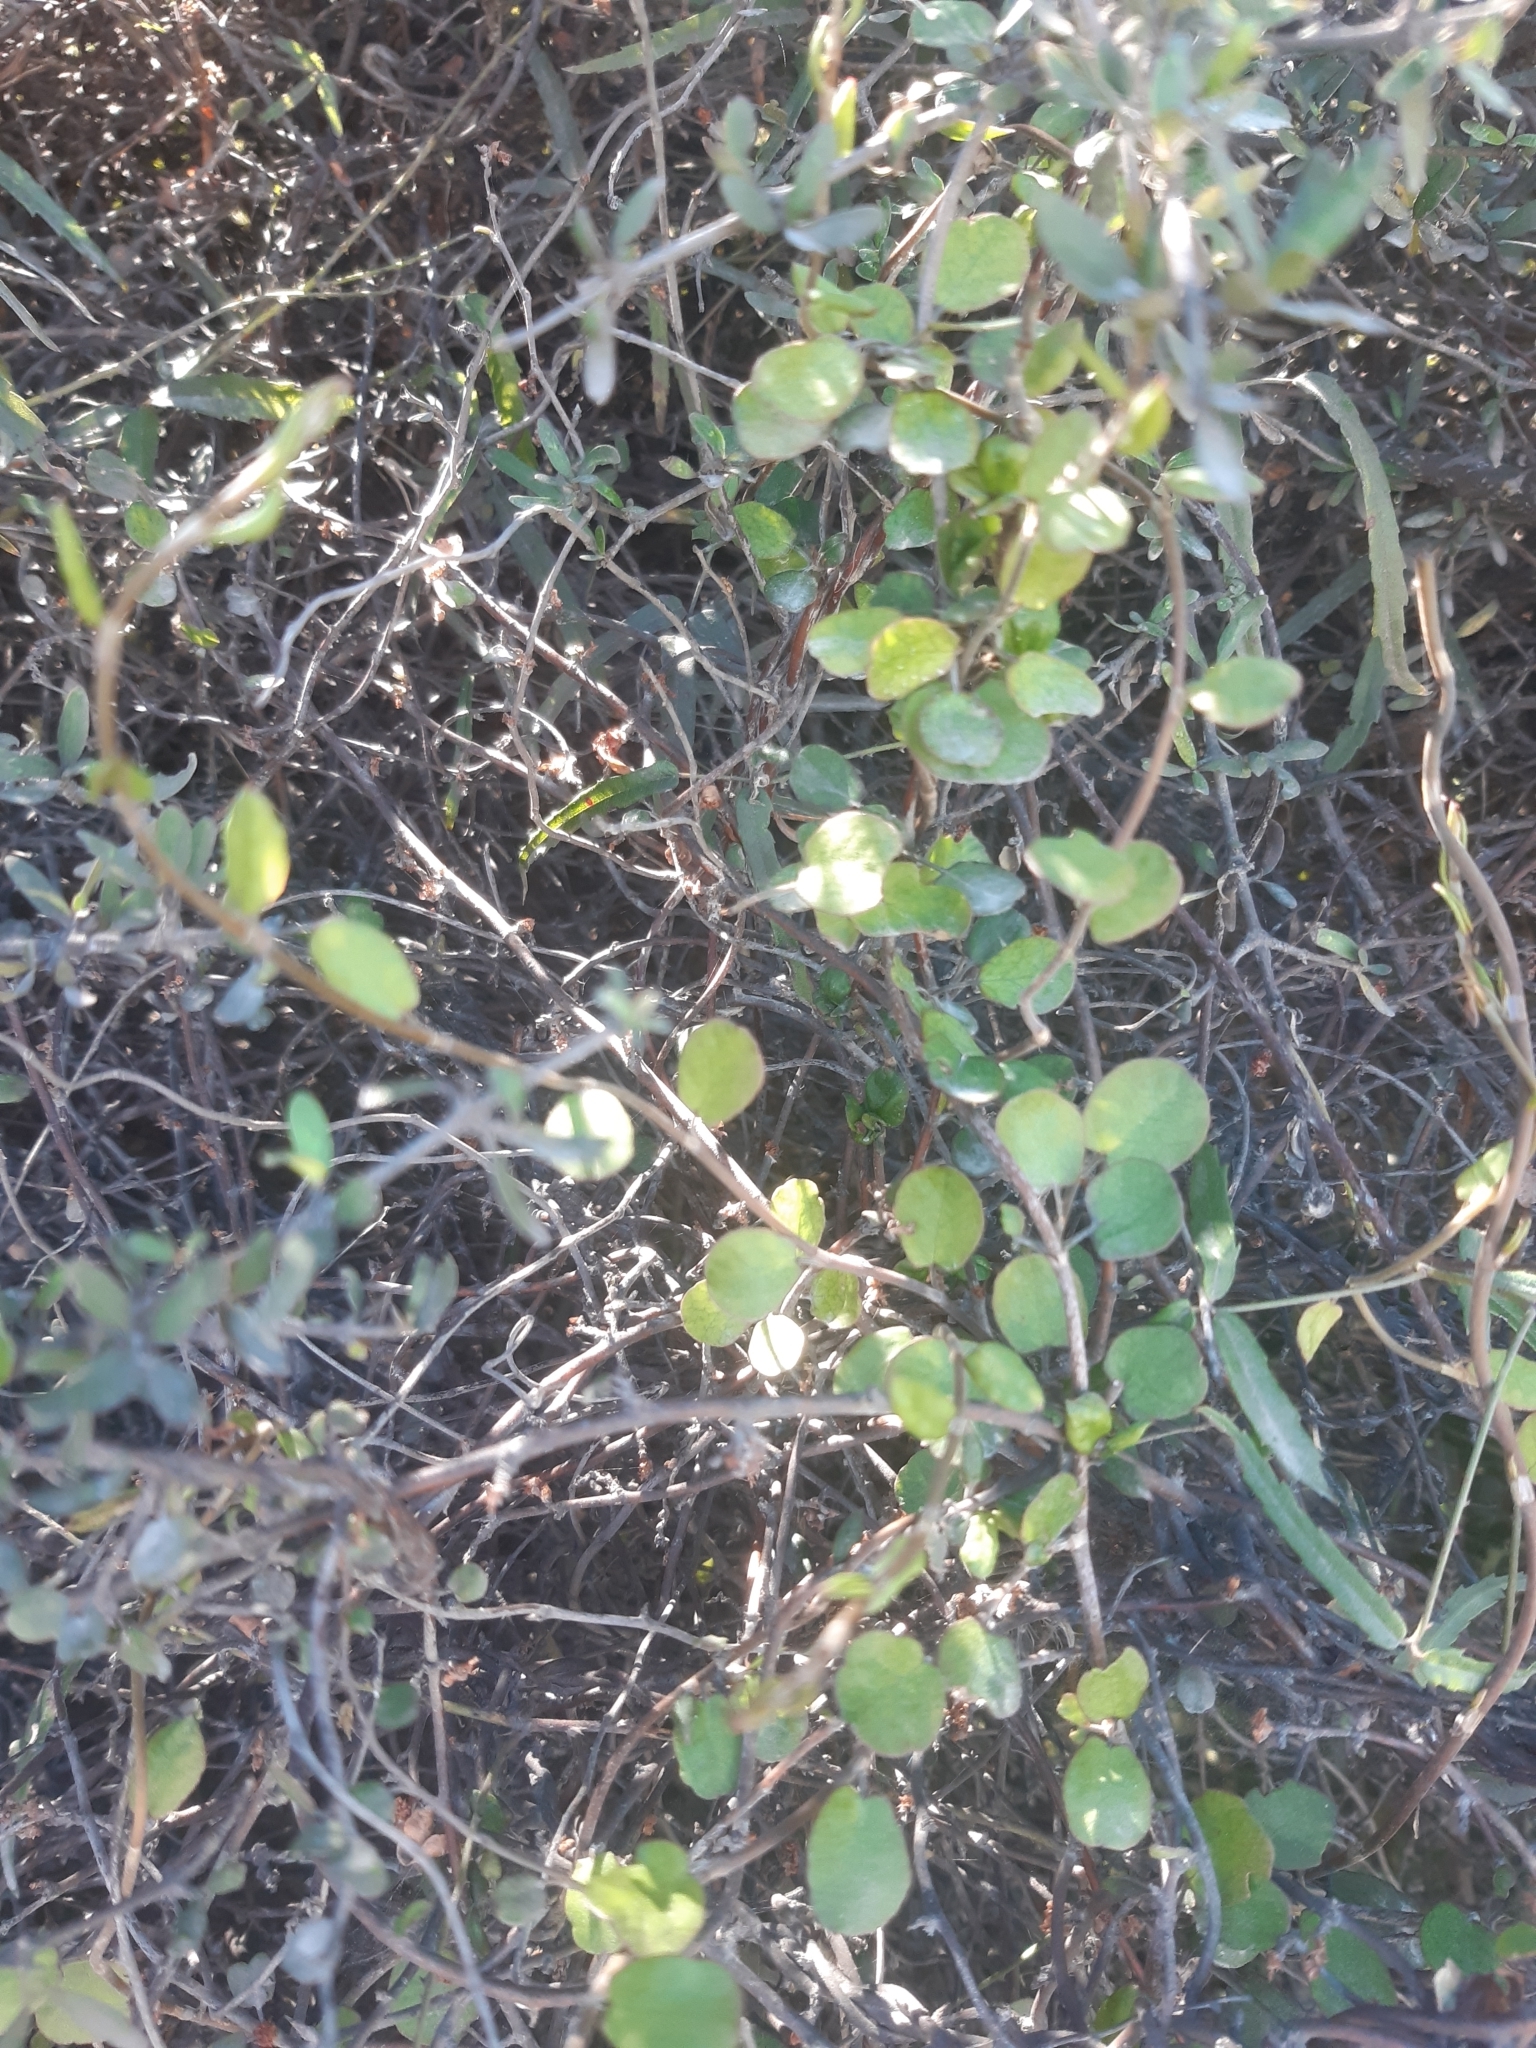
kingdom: Plantae
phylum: Tracheophyta
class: Magnoliopsida
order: Caryophyllales
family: Polygonaceae
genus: Muehlenbeckia
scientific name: Muehlenbeckia complexa
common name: Wireplant
